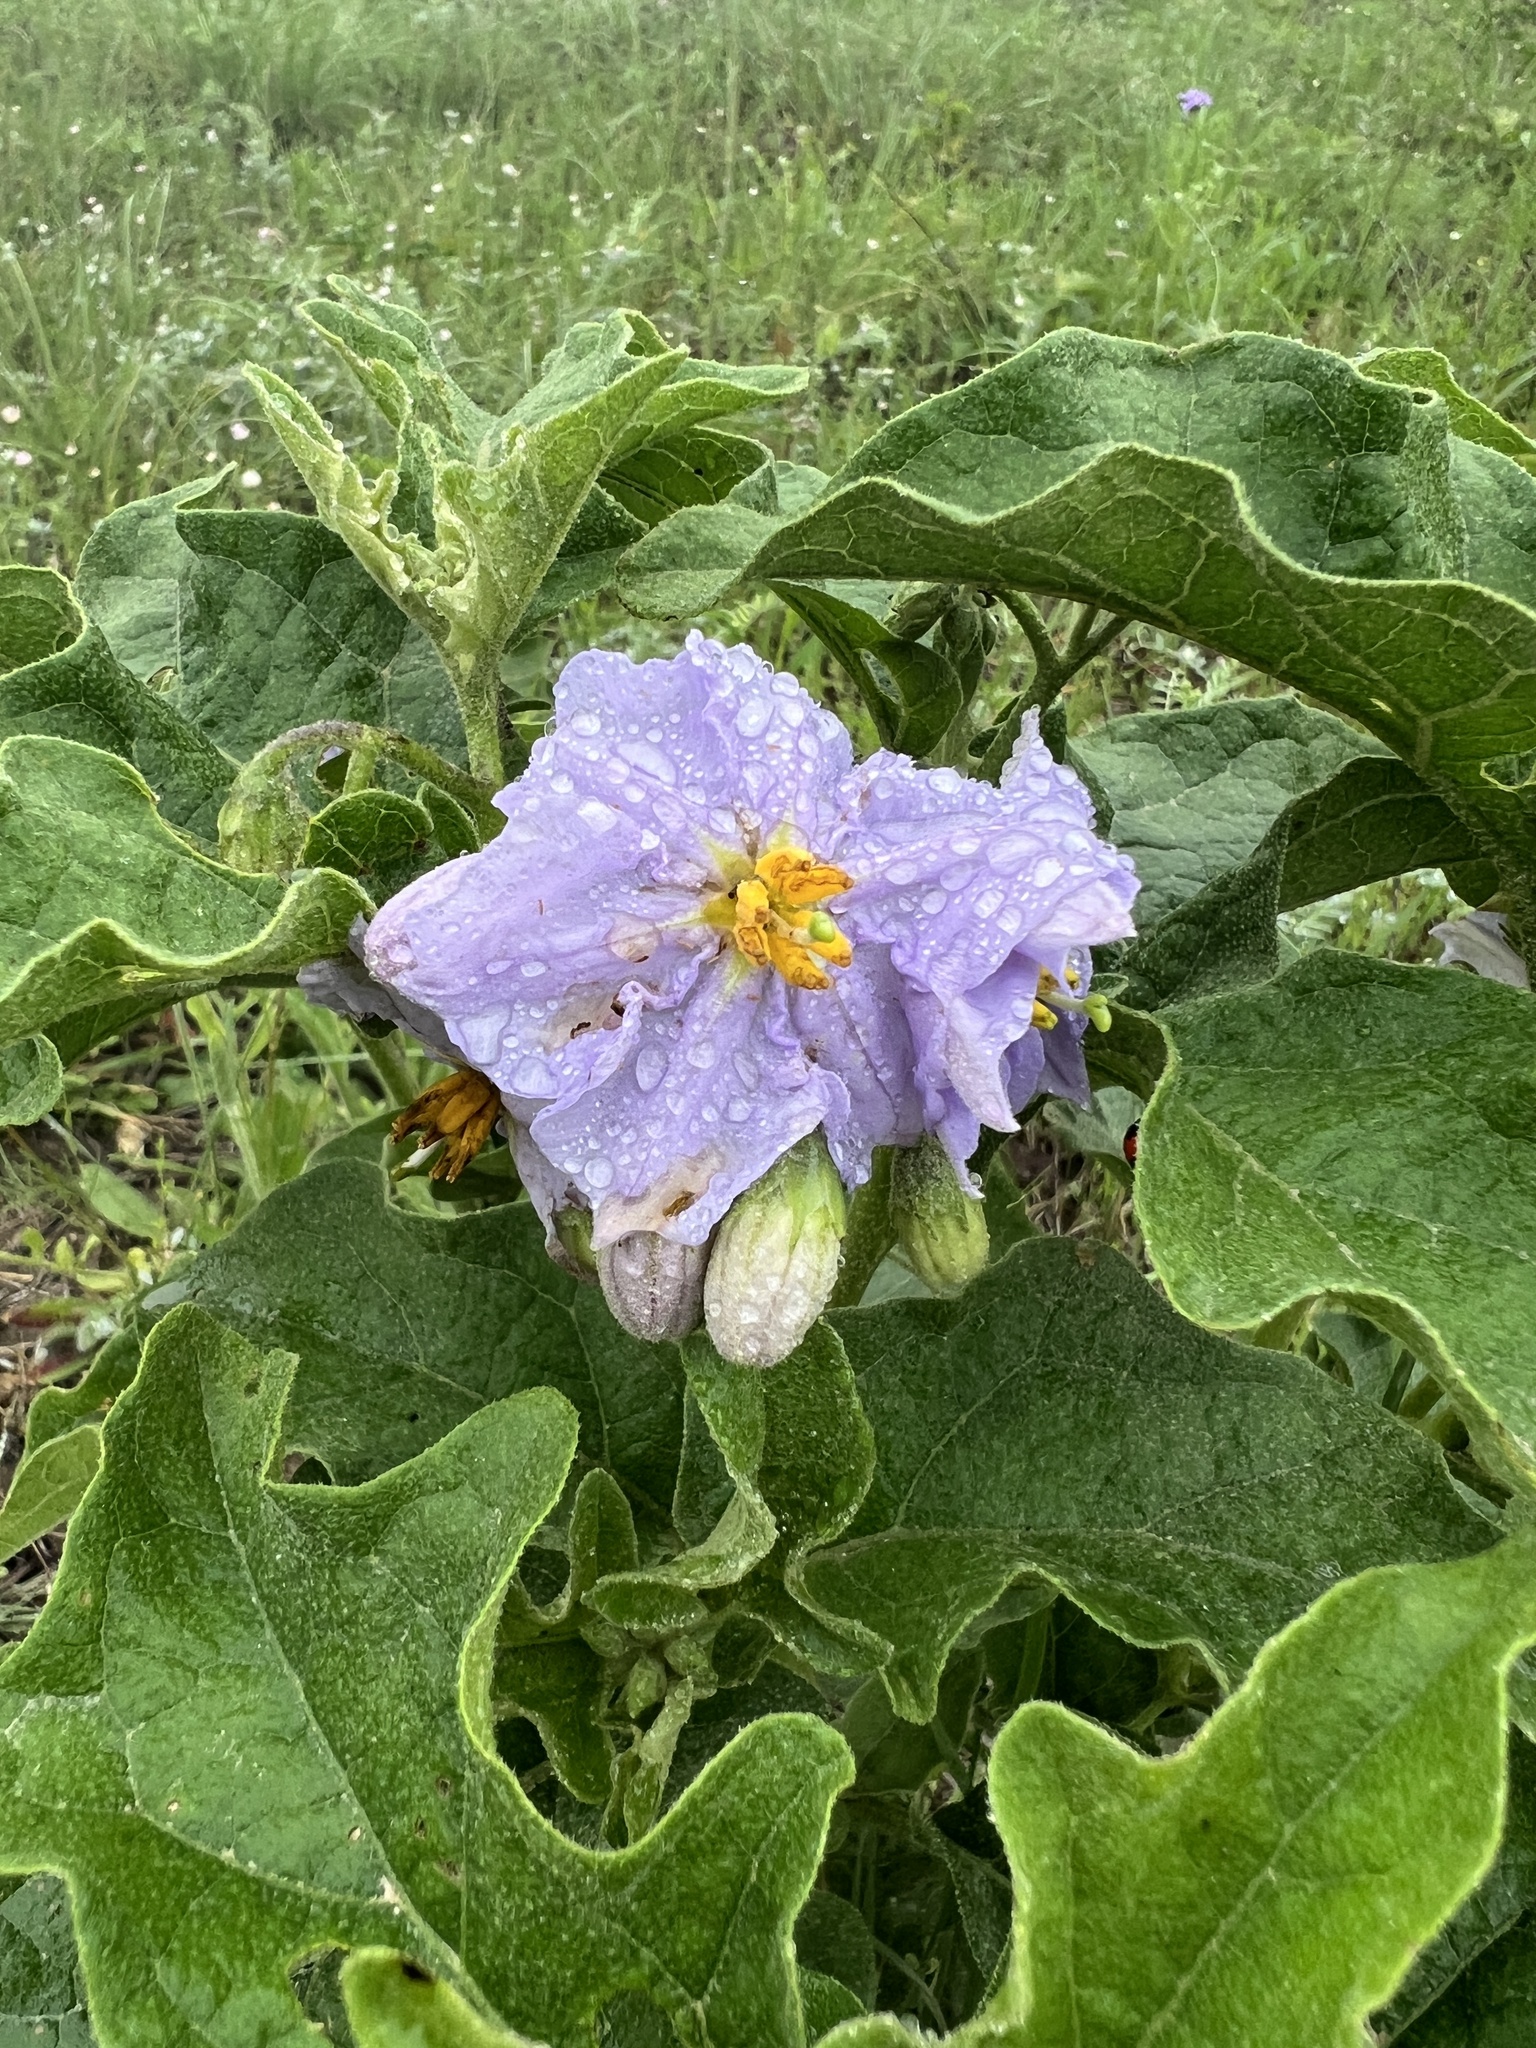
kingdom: Plantae
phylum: Tracheophyta
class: Magnoliopsida
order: Solanales
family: Solanaceae
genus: Solanum
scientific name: Solanum dimidiatum
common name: Carolina horse-nettle
